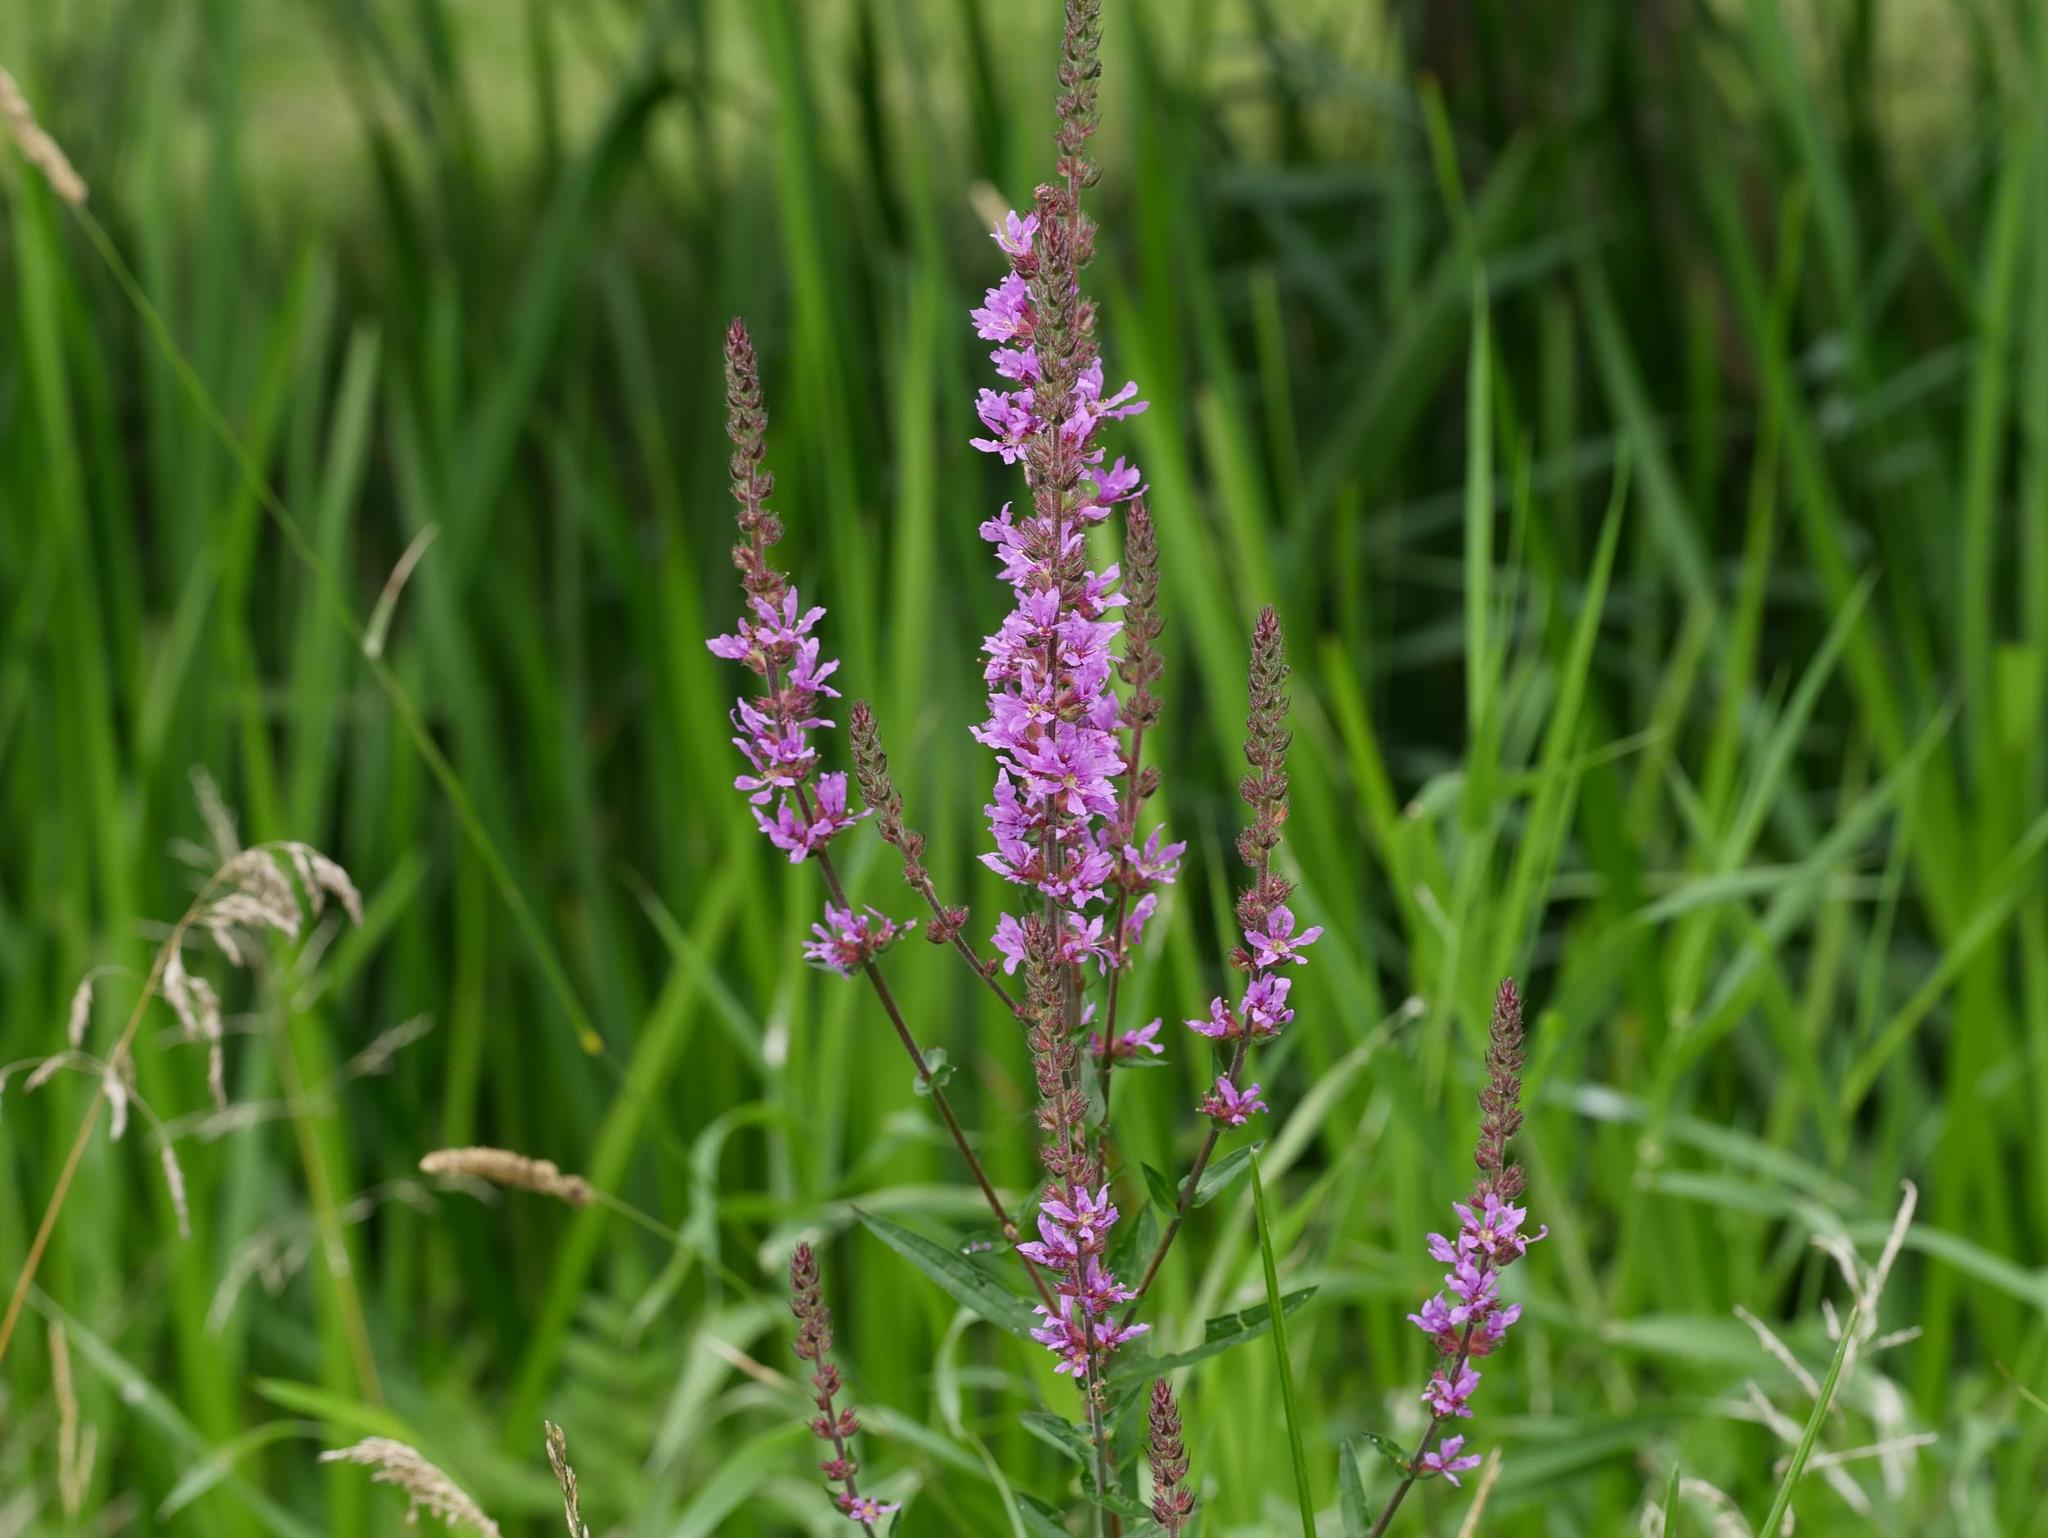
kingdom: Plantae
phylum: Tracheophyta
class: Magnoliopsida
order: Myrtales
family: Lythraceae
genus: Lythrum
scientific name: Lythrum salicaria
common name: Purple loosestrife
